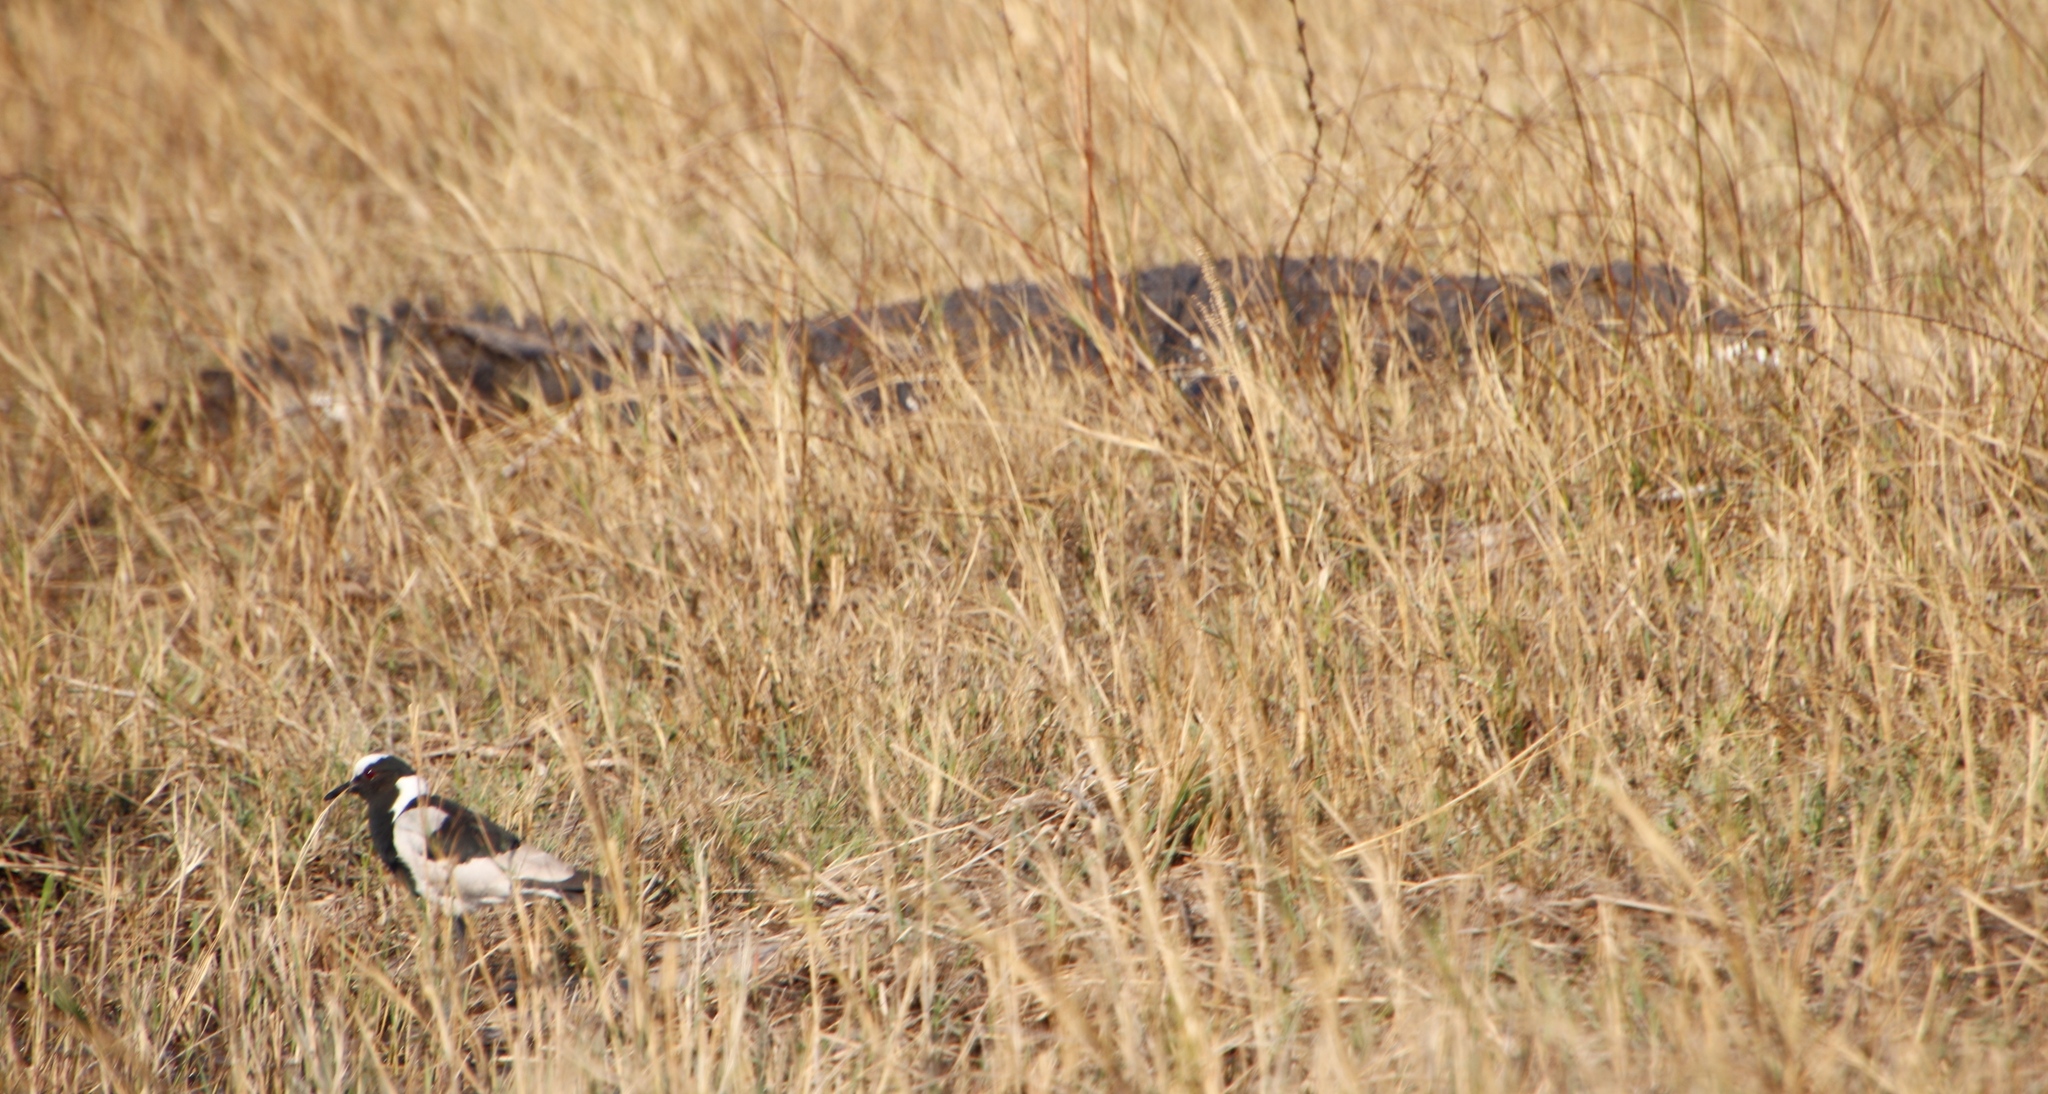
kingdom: Animalia
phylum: Chordata
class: Crocodylia
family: Crocodylidae
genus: Crocodylus
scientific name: Crocodylus niloticus
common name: Nile crocodile
